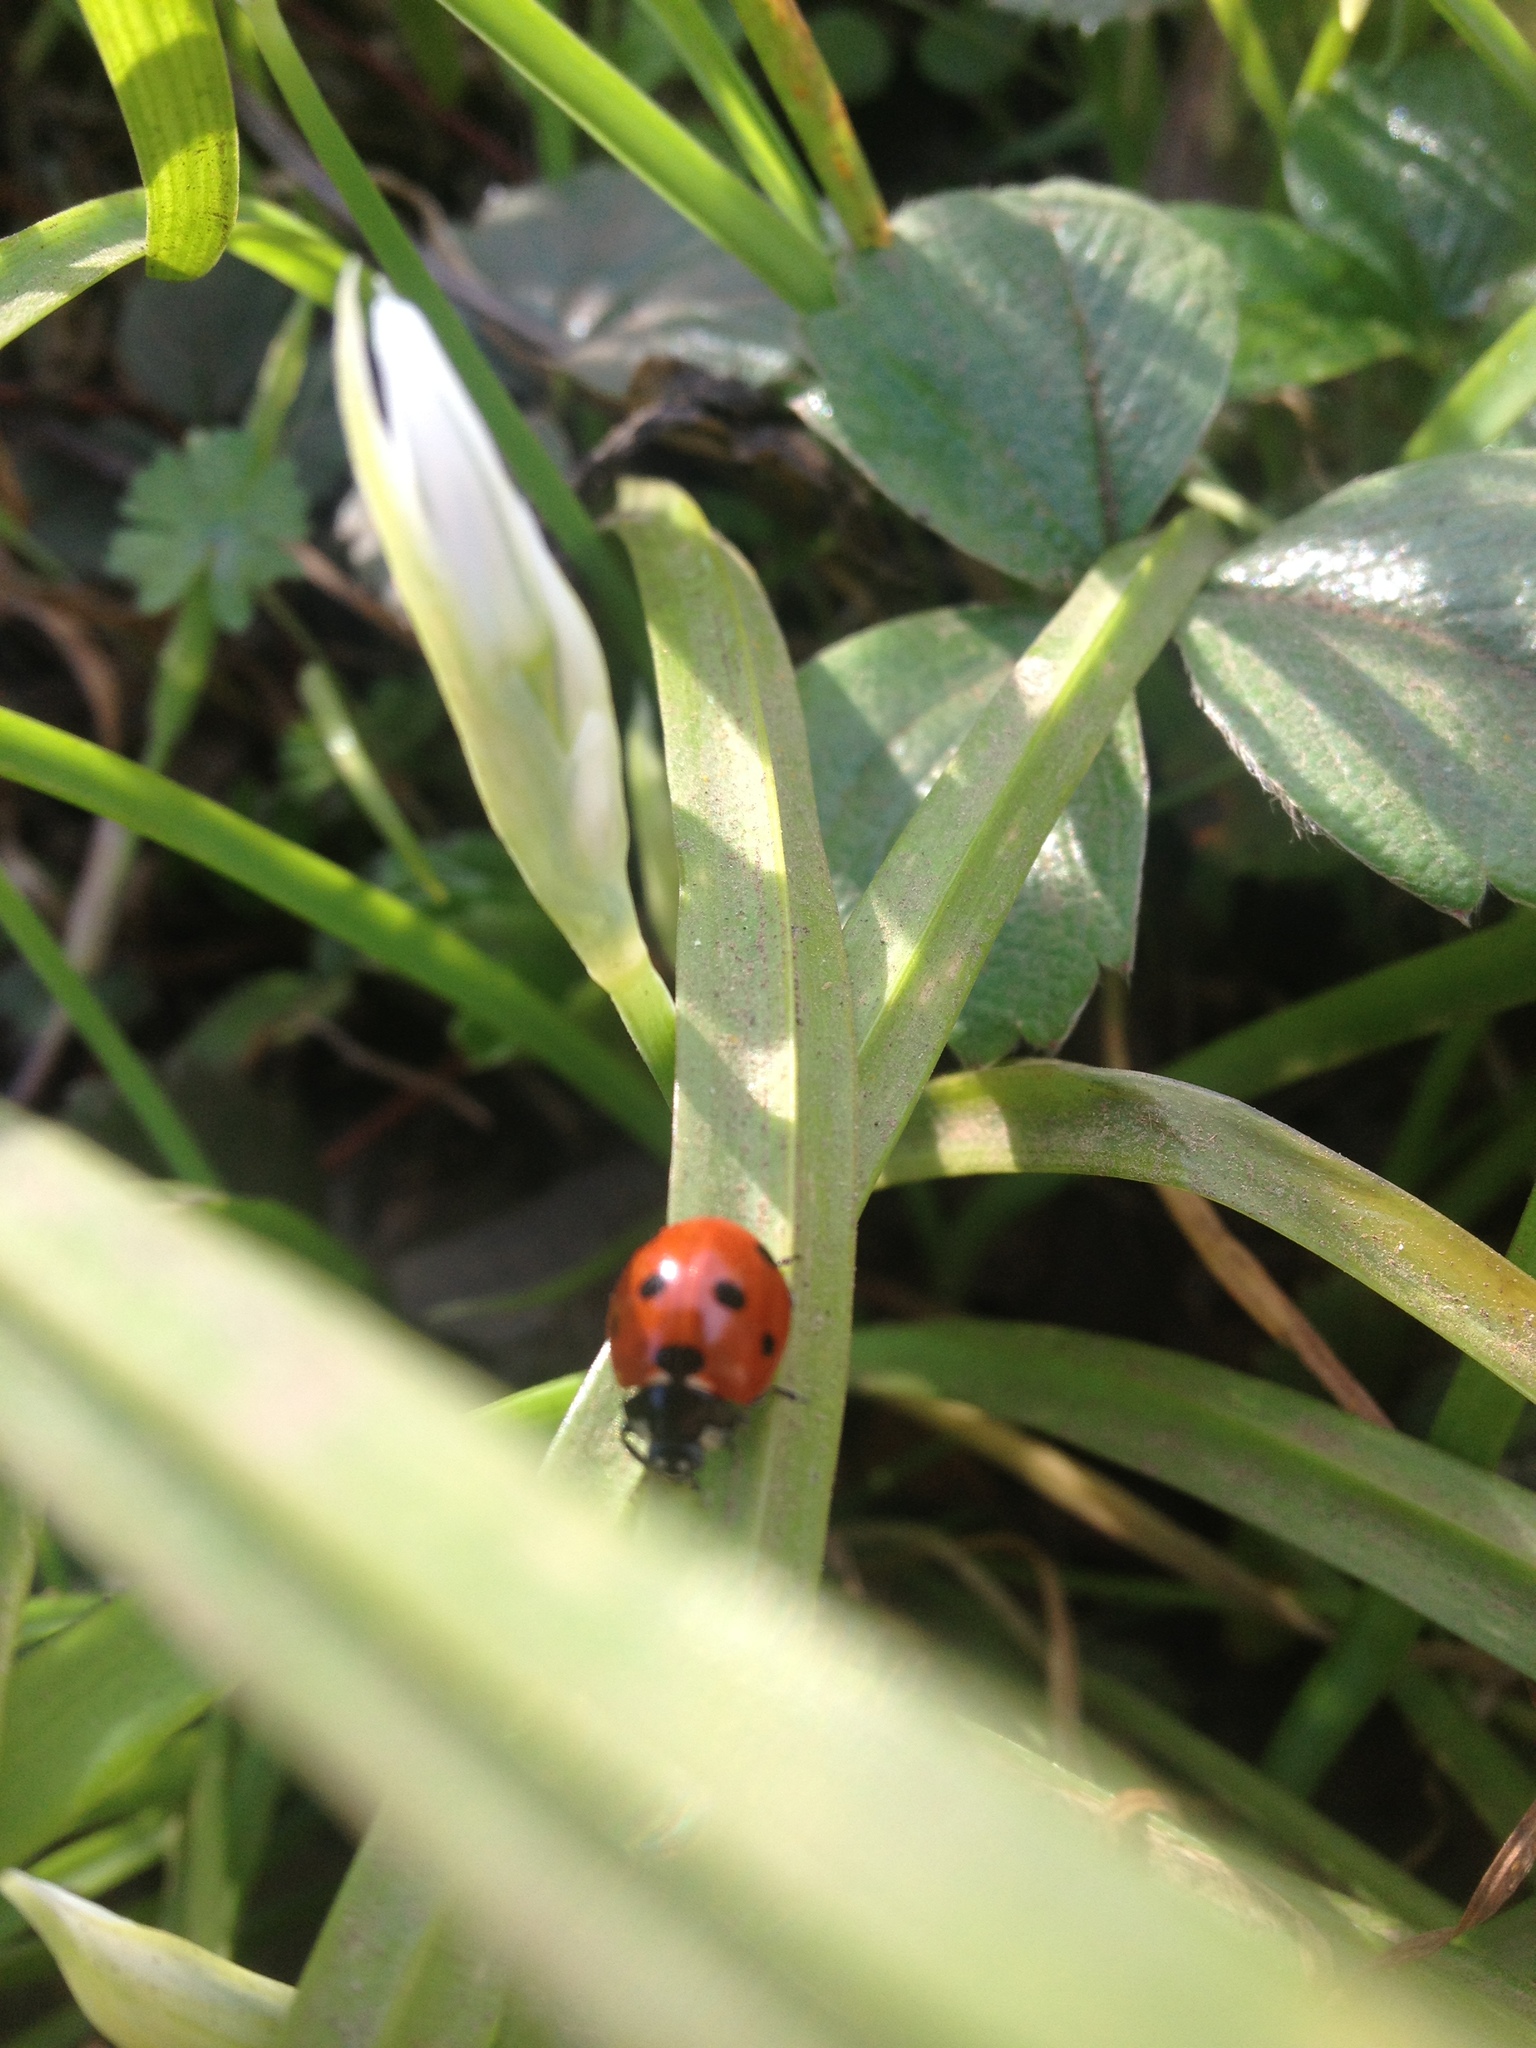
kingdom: Animalia
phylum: Arthropoda
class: Insecta
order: Coleoptera
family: Coccinellidae
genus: Coccinella
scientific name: Coccinella septempunctata
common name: Sevenspotted lady beetle
